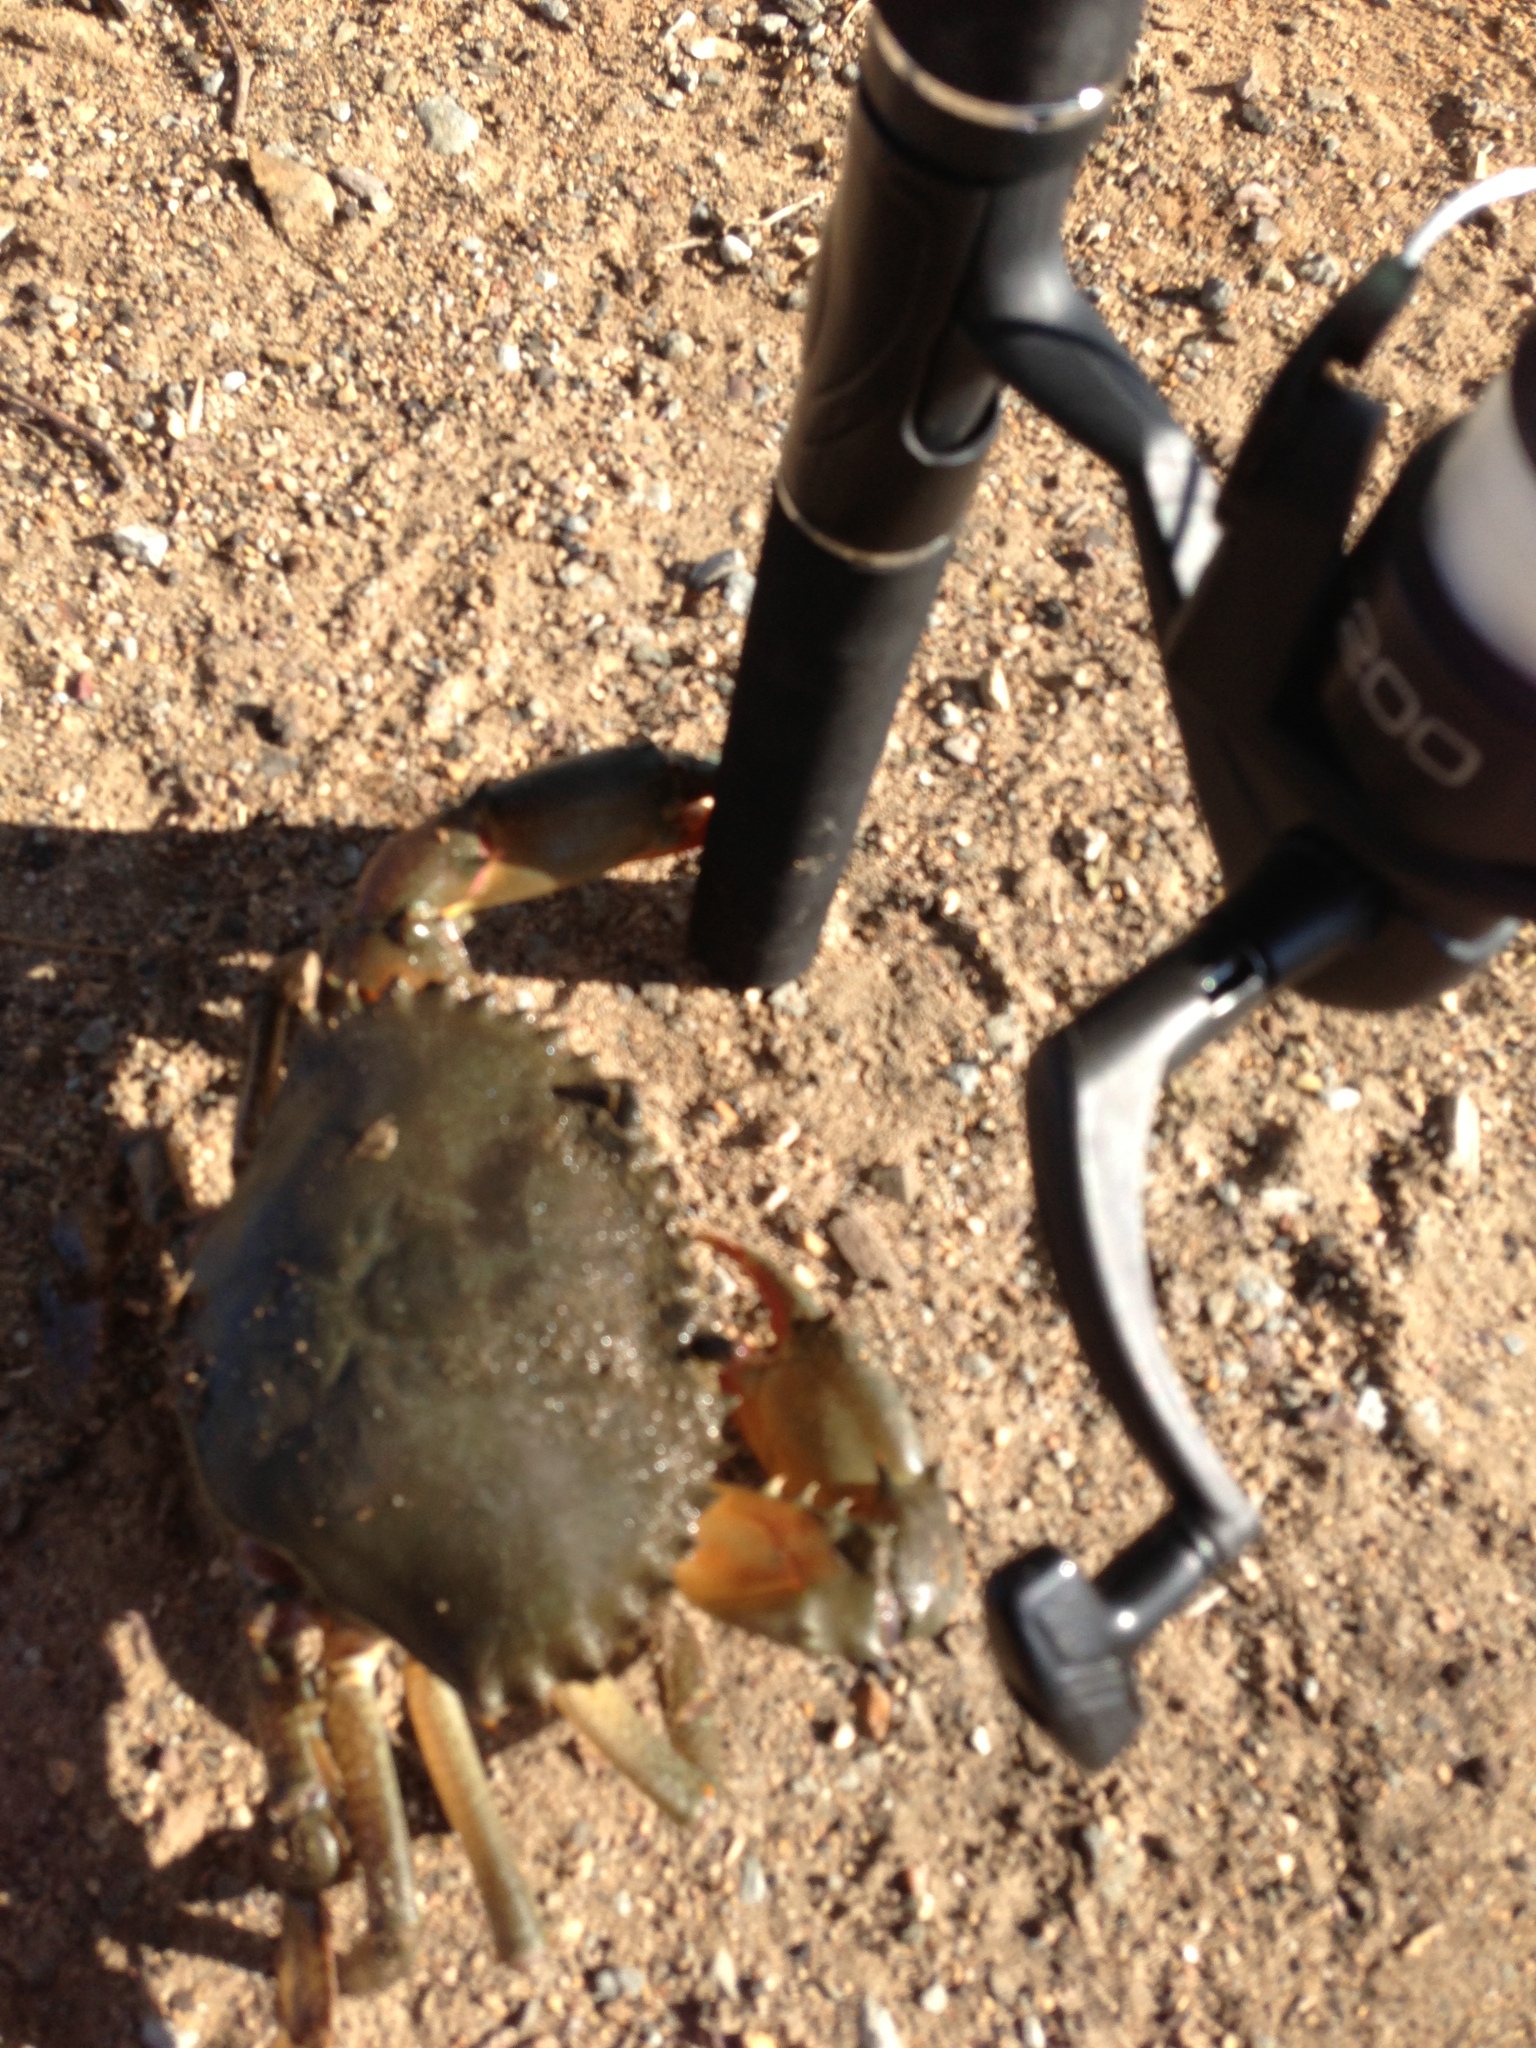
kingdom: Animalia
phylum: Arthropoda
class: Malacostraca
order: Decapoda
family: Portunidae
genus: Scylla
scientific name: Scylla serrata
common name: Giant mud crab
